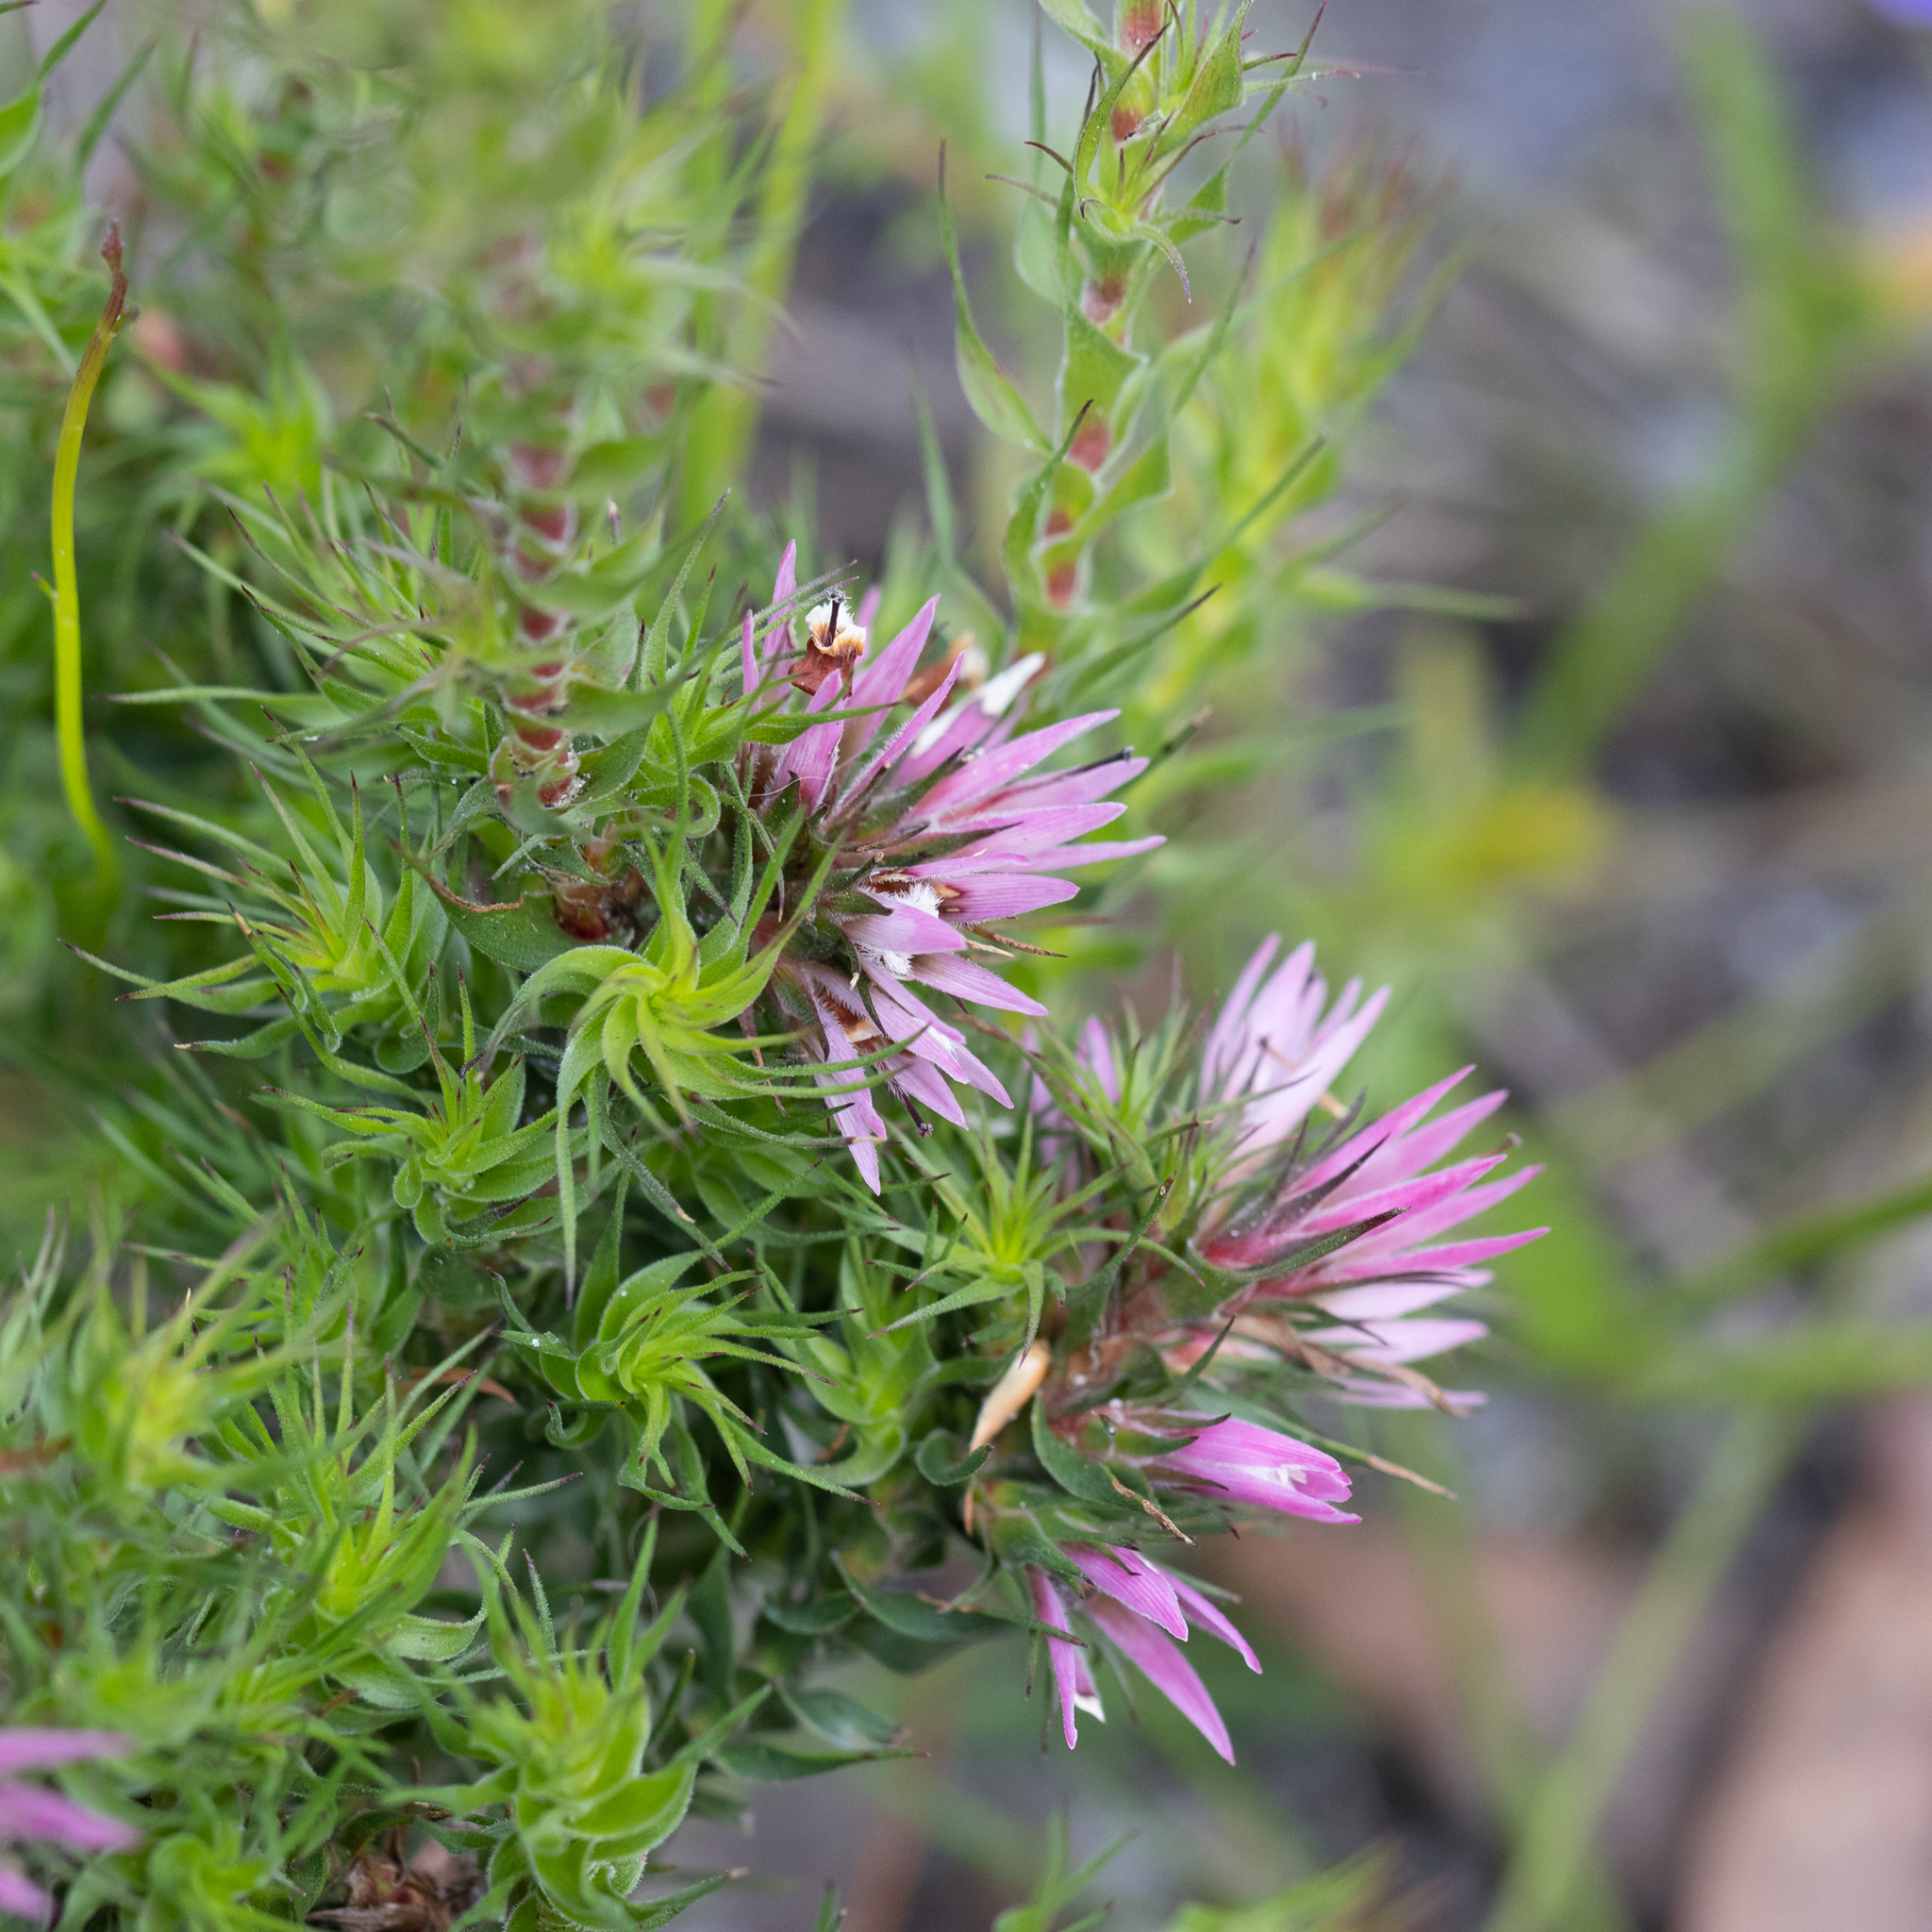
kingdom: Plantae
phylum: Tracheophyta
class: Magnoliopsida
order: Ericales
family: Ericaceae
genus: Andersonia
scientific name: Andersonia caerulea
